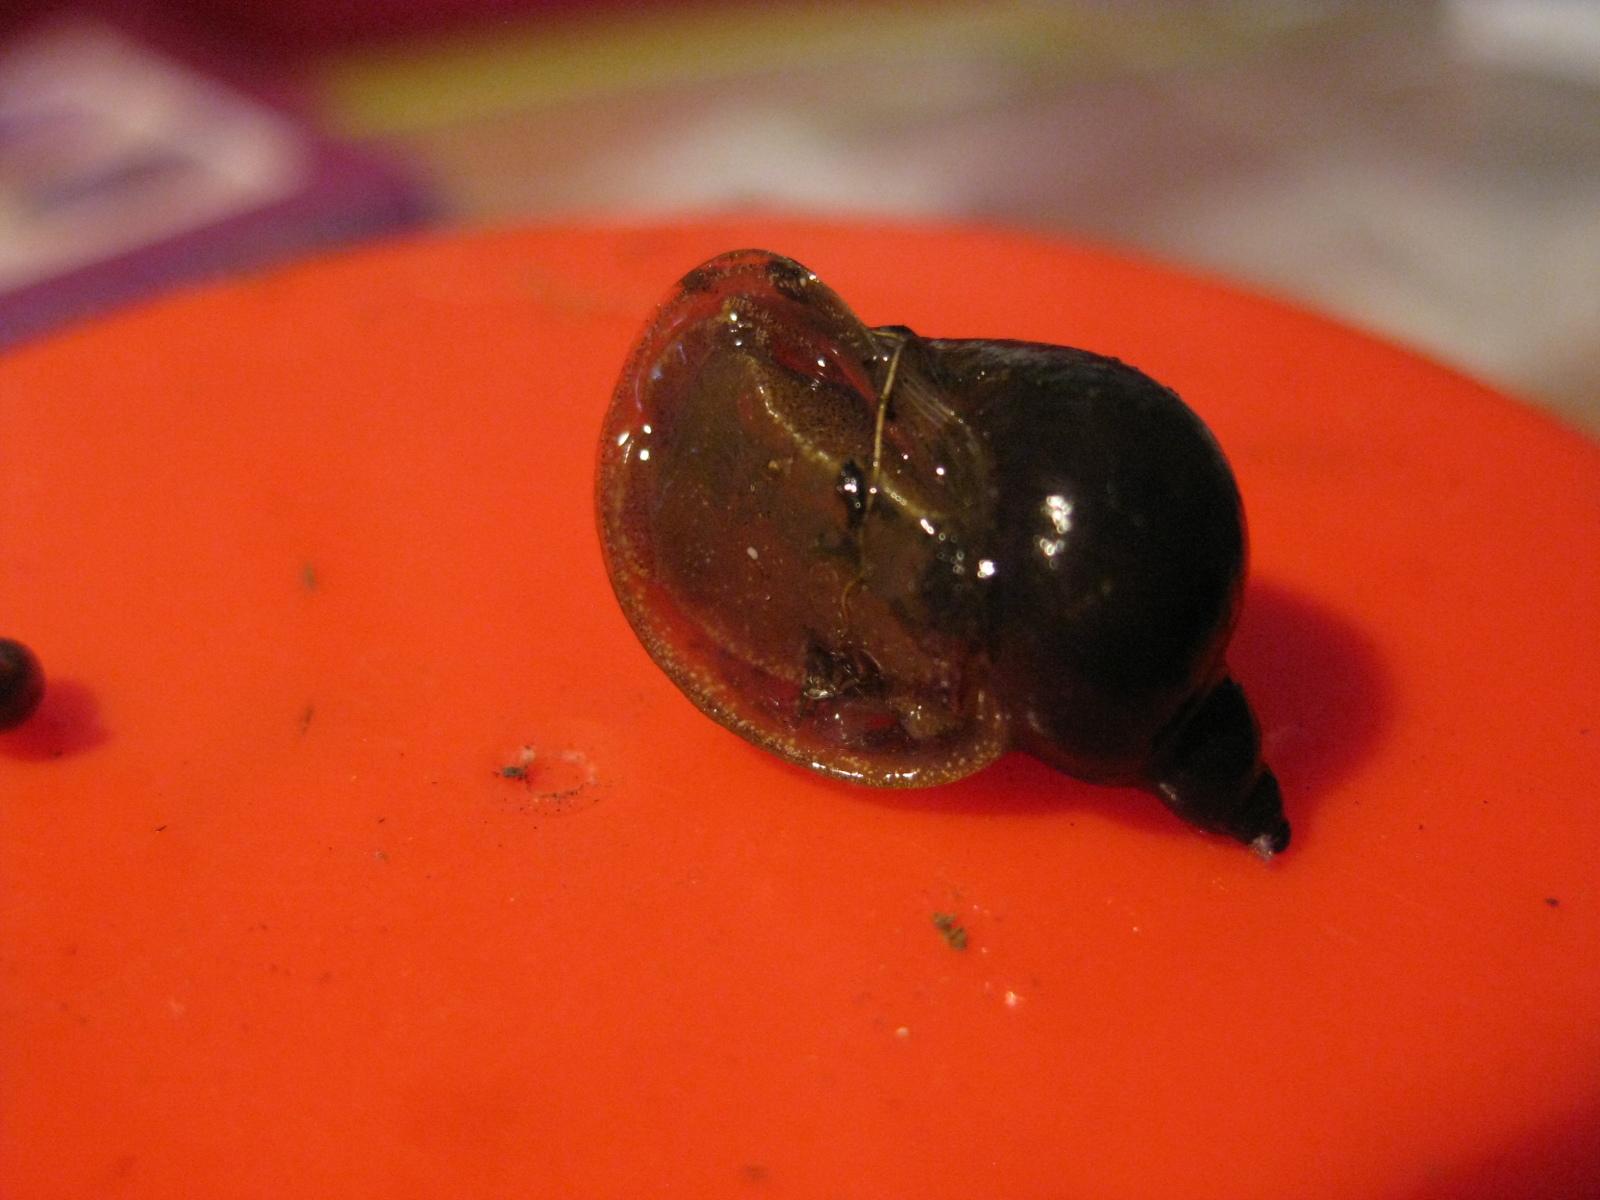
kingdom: Animalia
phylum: Mollusca
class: Gastropoda
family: Lymnaeidae
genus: Radix
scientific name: Radix auricularia
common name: Ear pond snail
